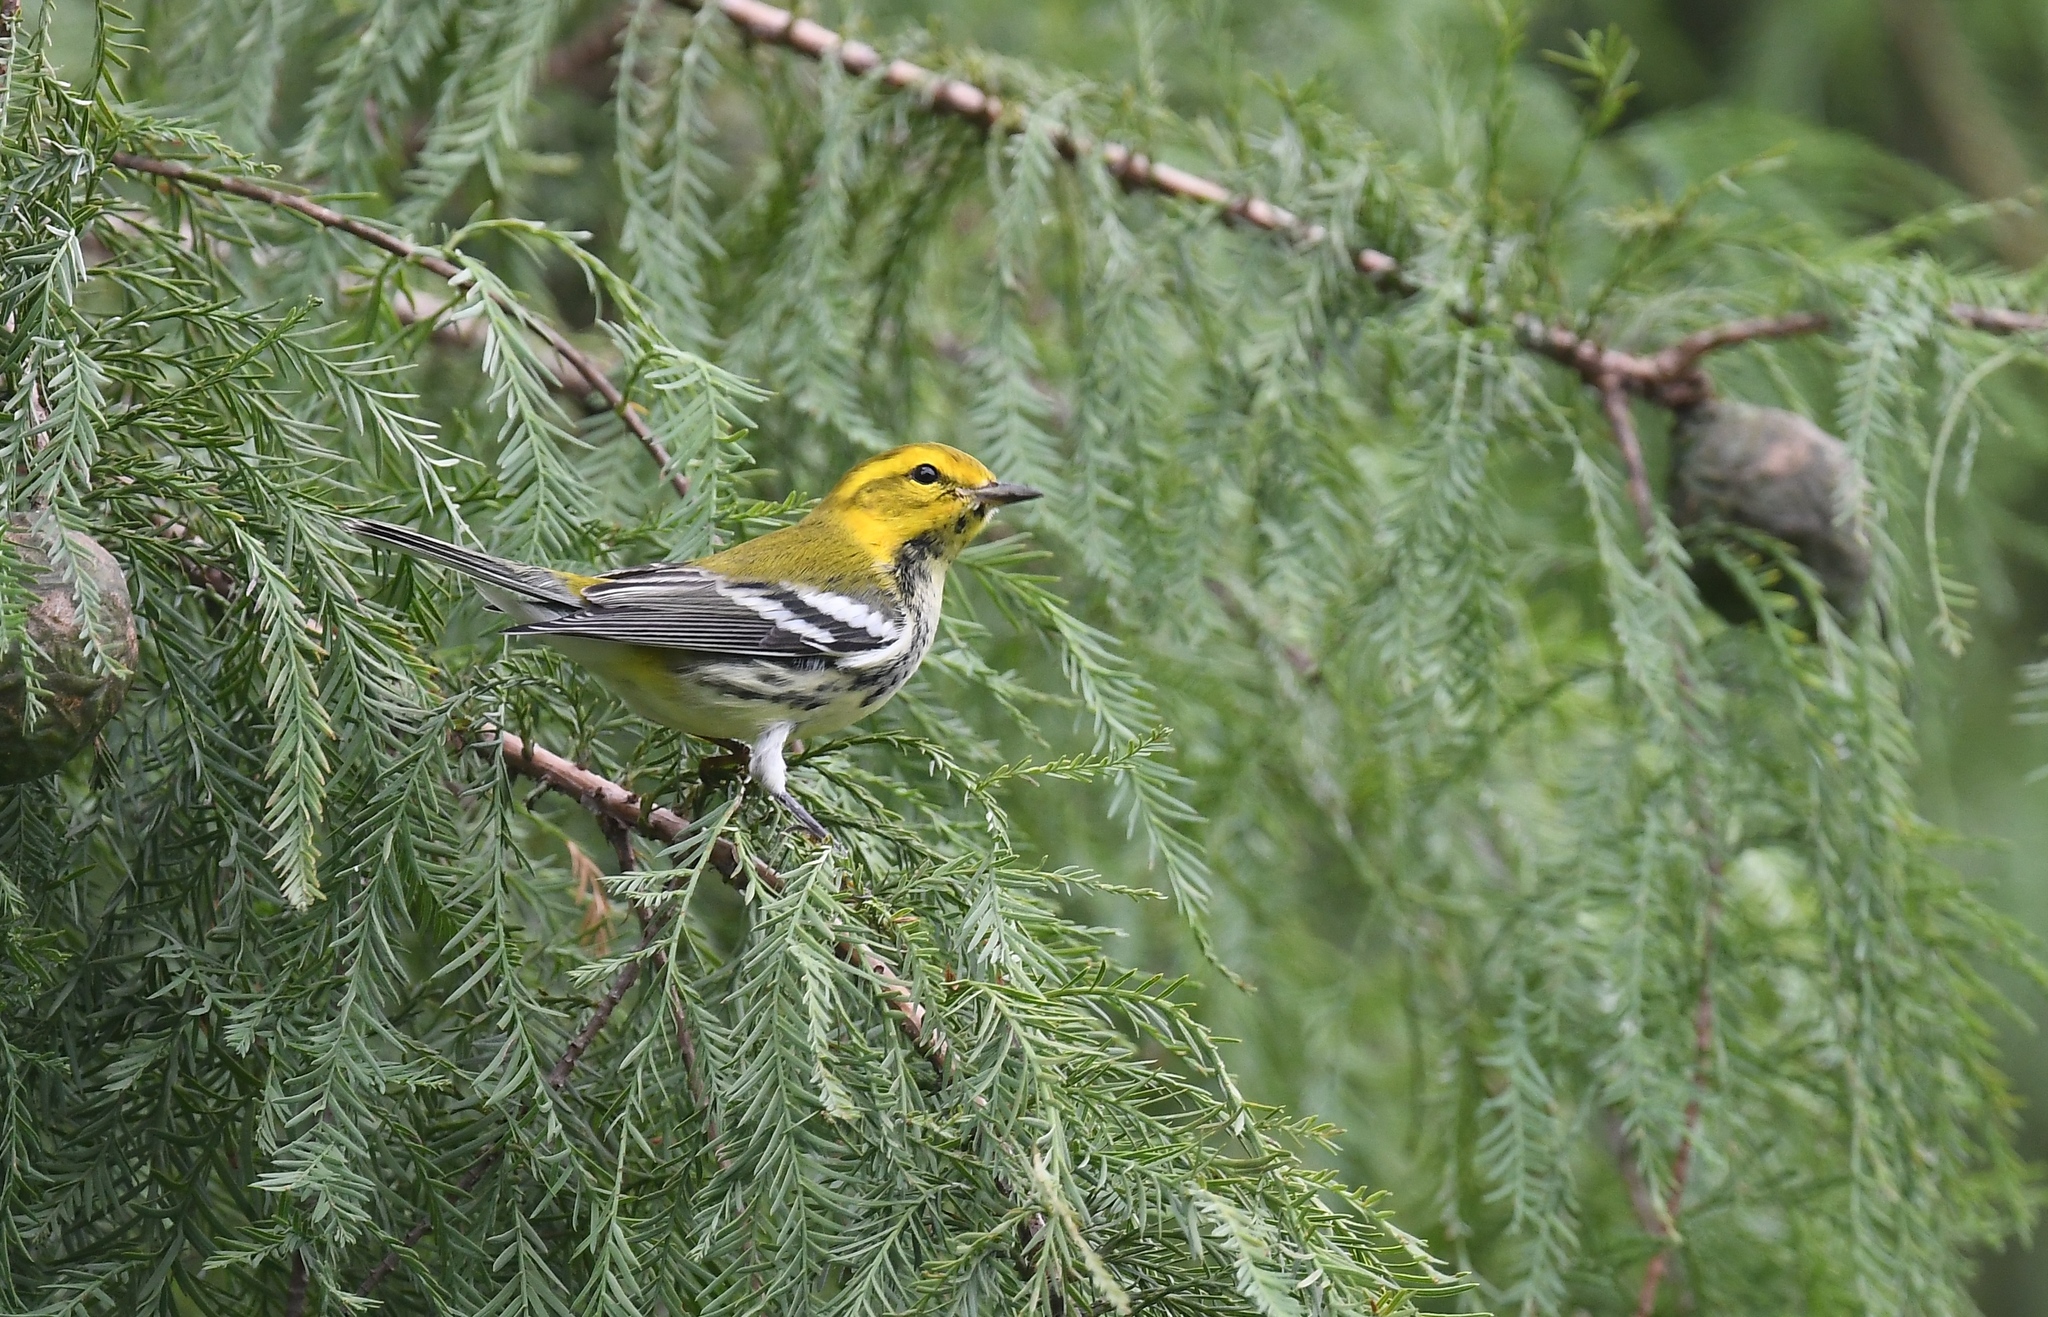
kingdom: Animalia
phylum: Chordata
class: Aves
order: Passeriformes
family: Parulidae
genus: Setophaga
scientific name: Setophaga virens
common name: Black-throated green warbler
